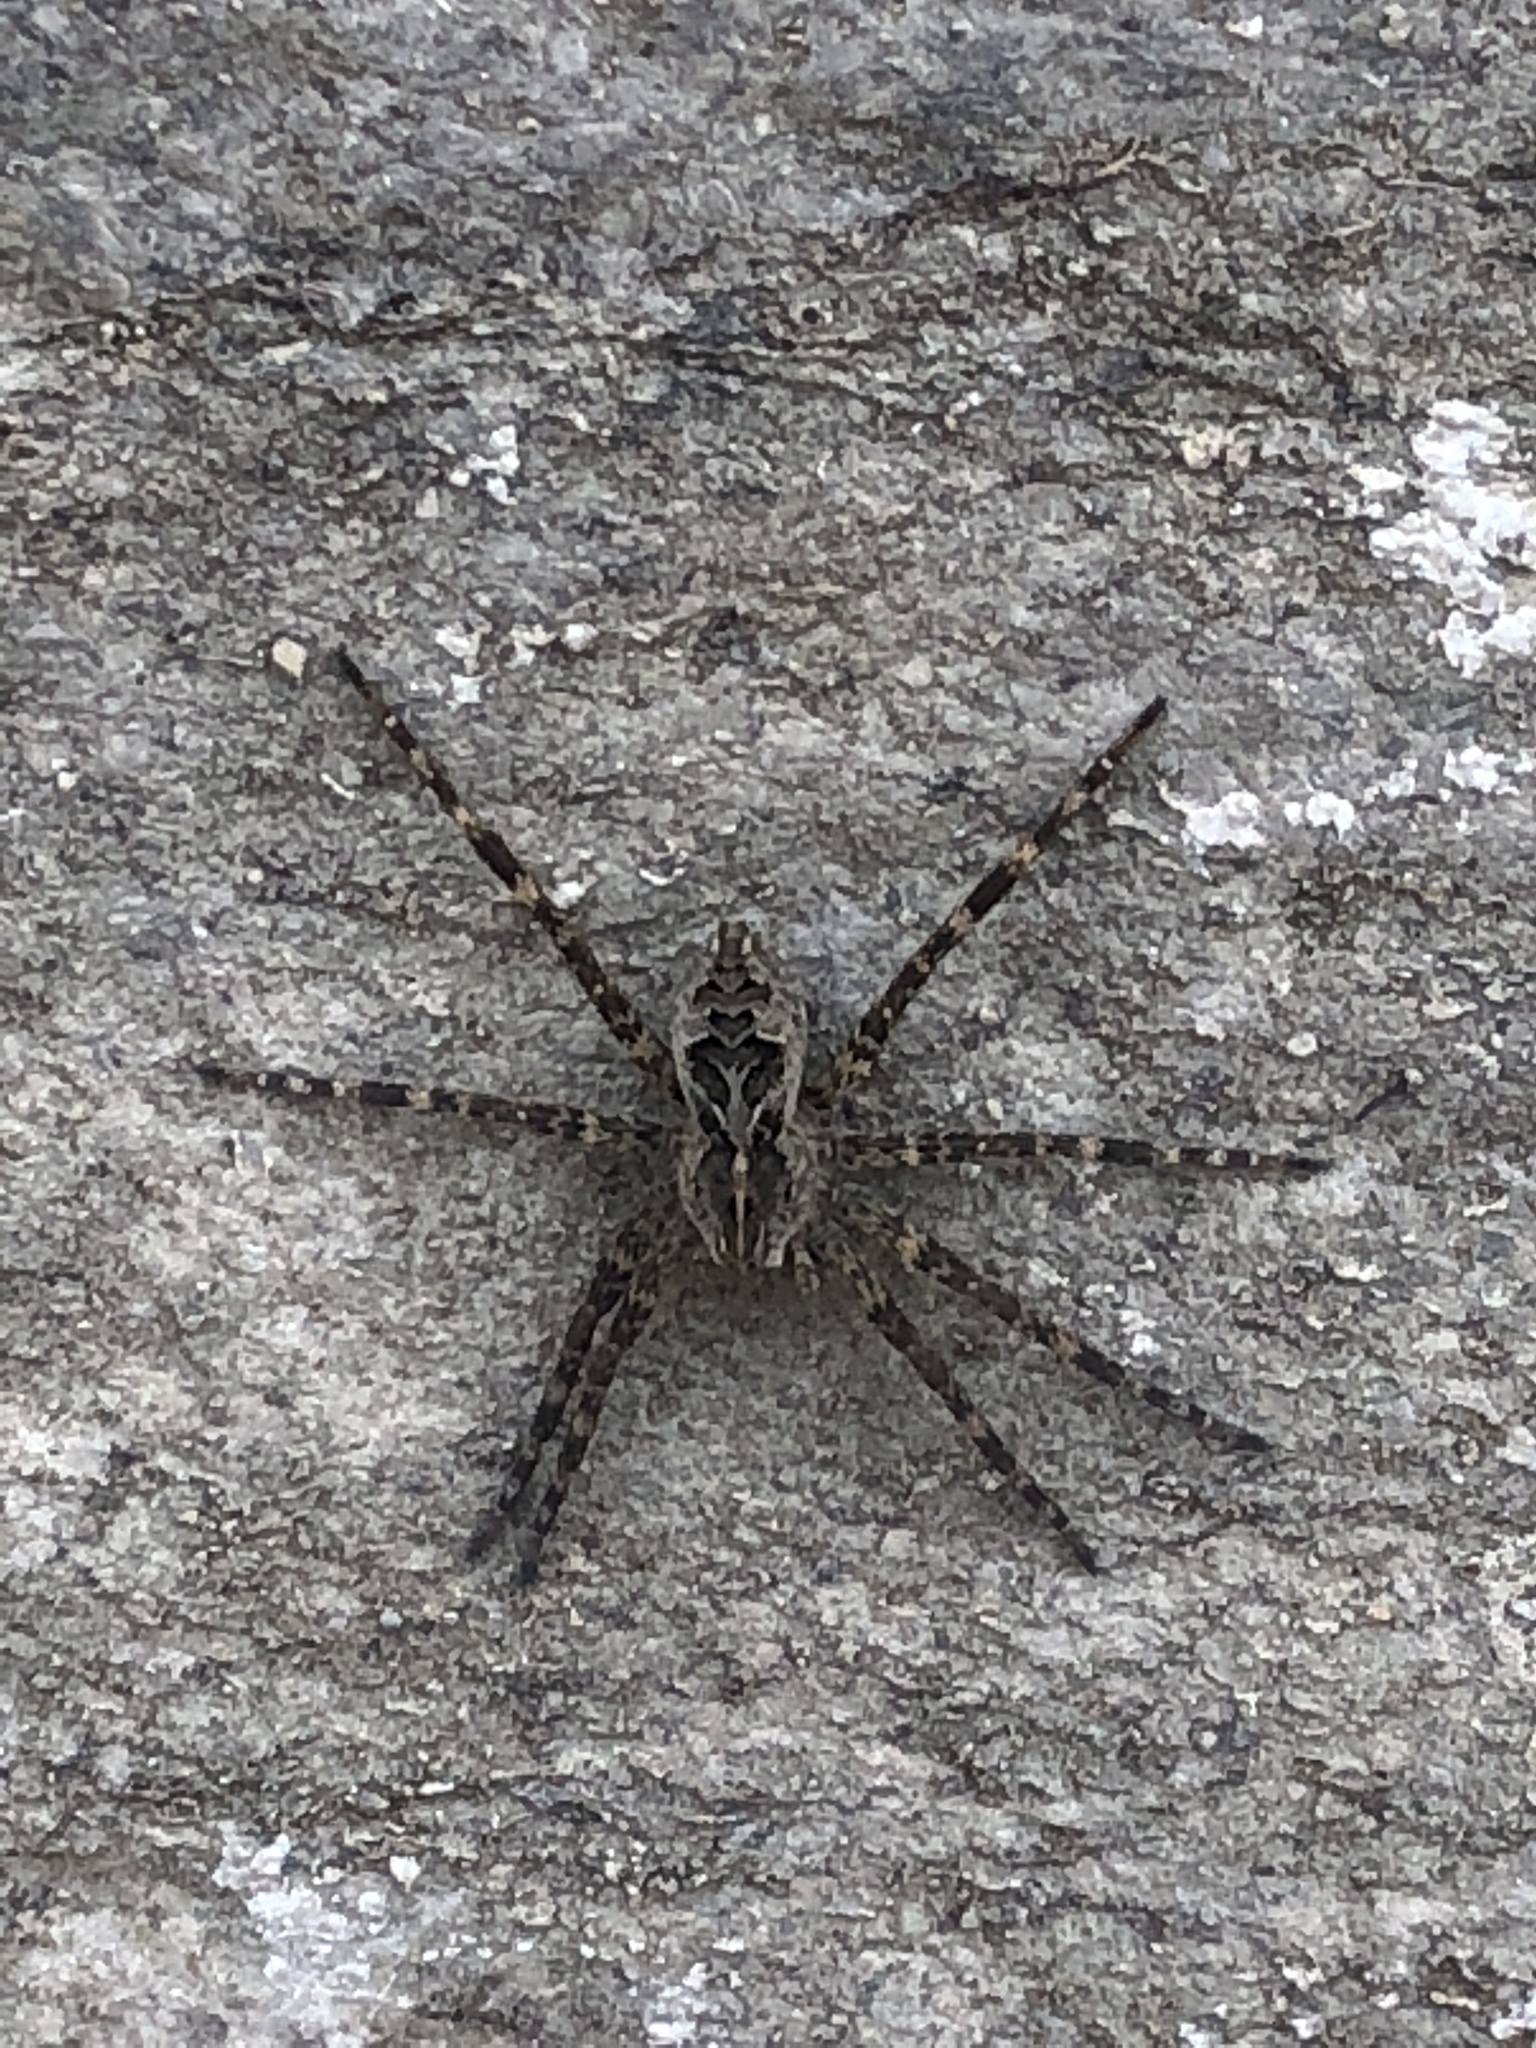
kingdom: Animalia
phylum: Arthropoda
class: Arachnida
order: Araneae
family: Pisauridae
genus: Dolomedes
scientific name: Dolomedes scriptus
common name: Striped fishing spider
